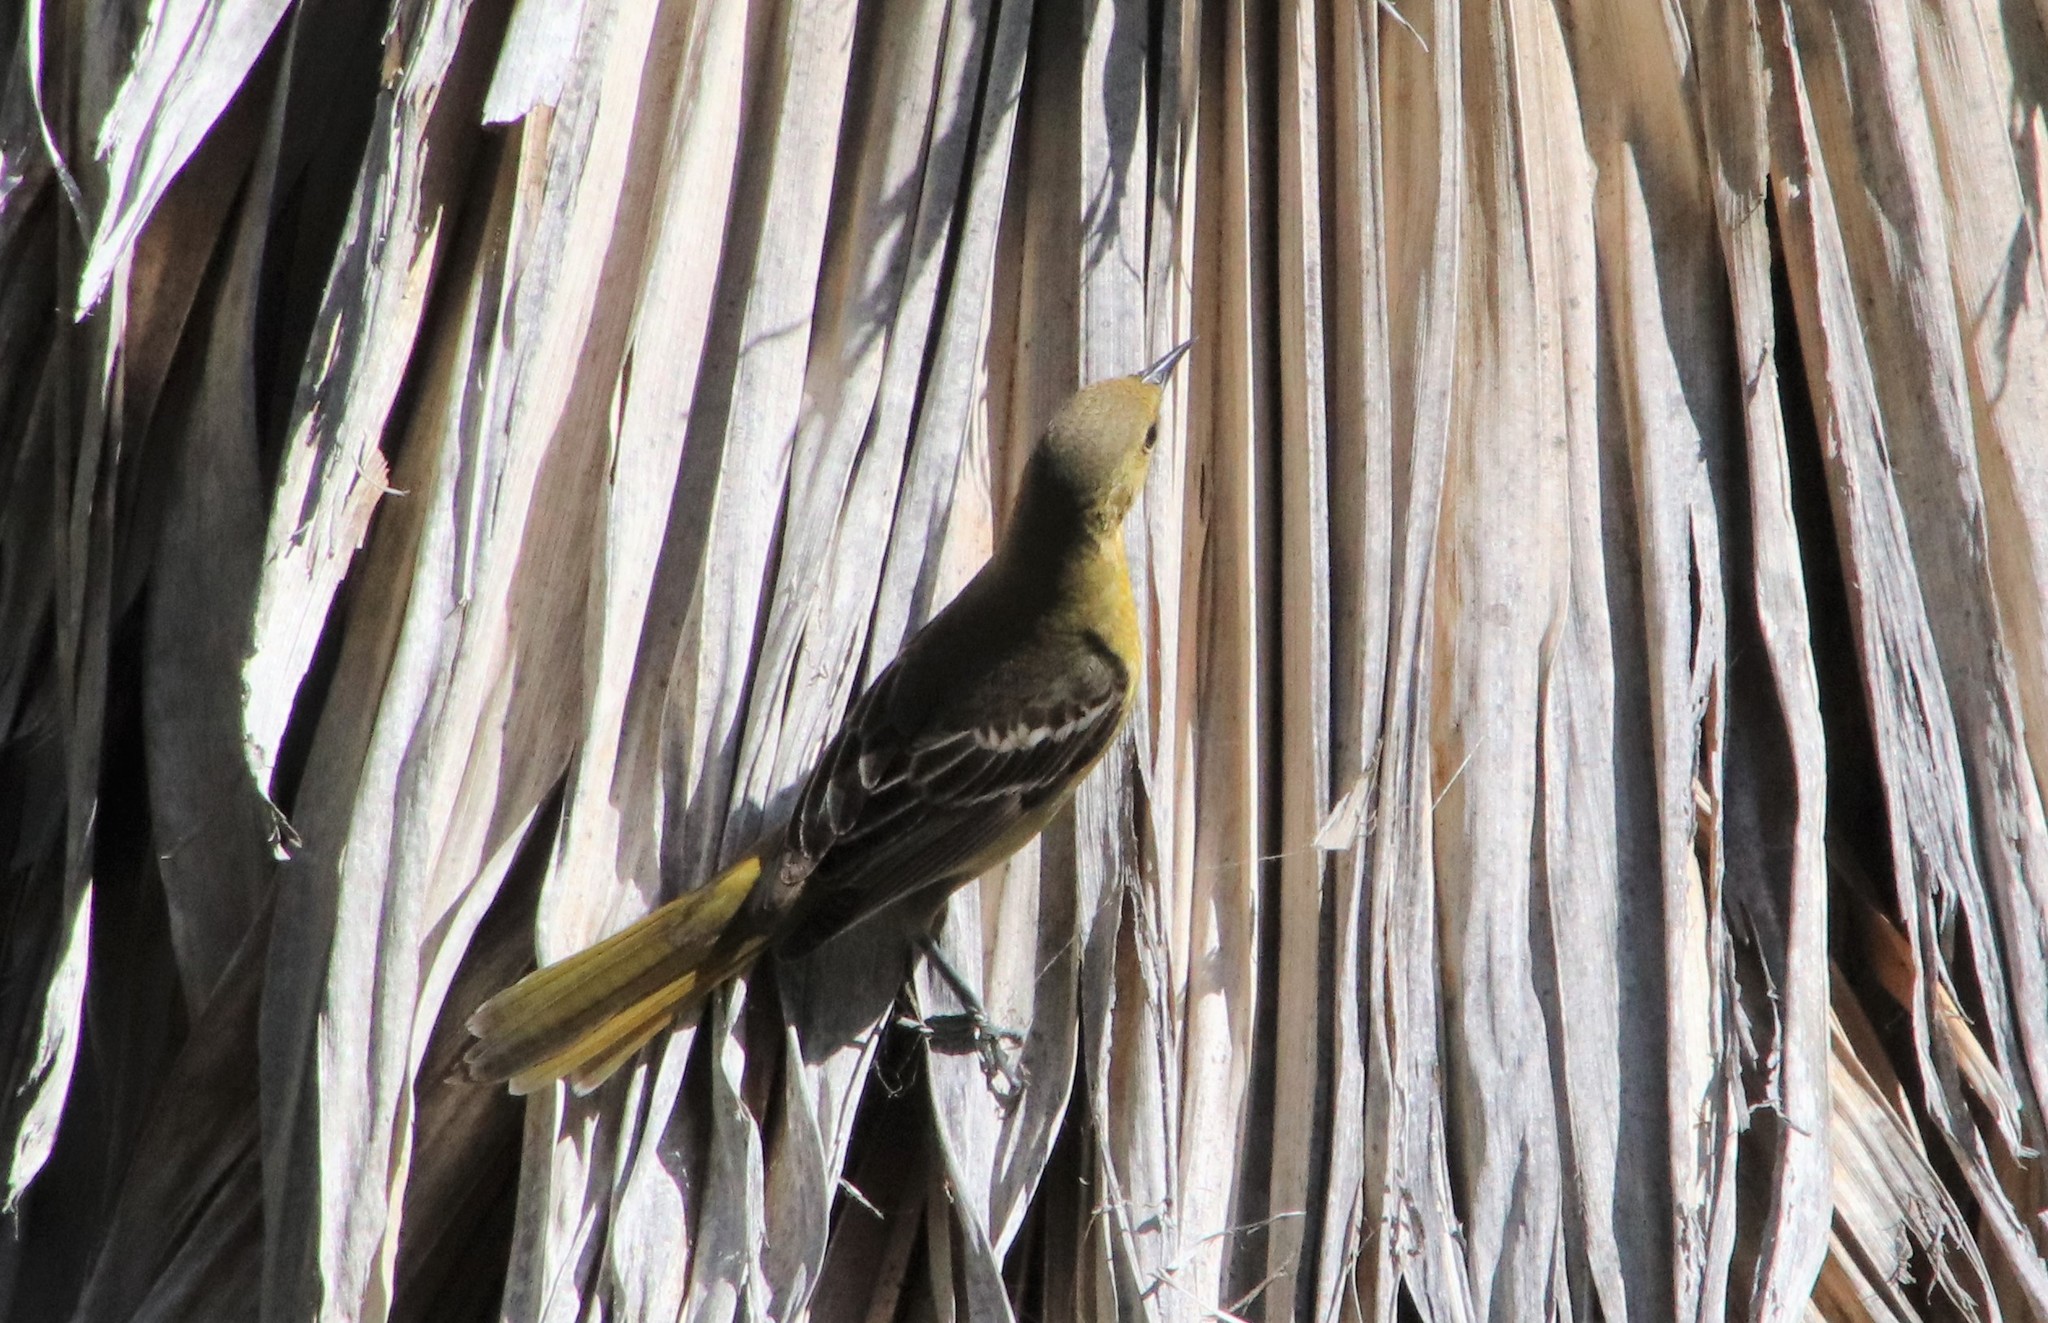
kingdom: Animalia
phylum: Chordata
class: Aves
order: Passeriformes
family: Icteridae
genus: Icterus
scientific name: Icterus cucullatus
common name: Hooded oriole
